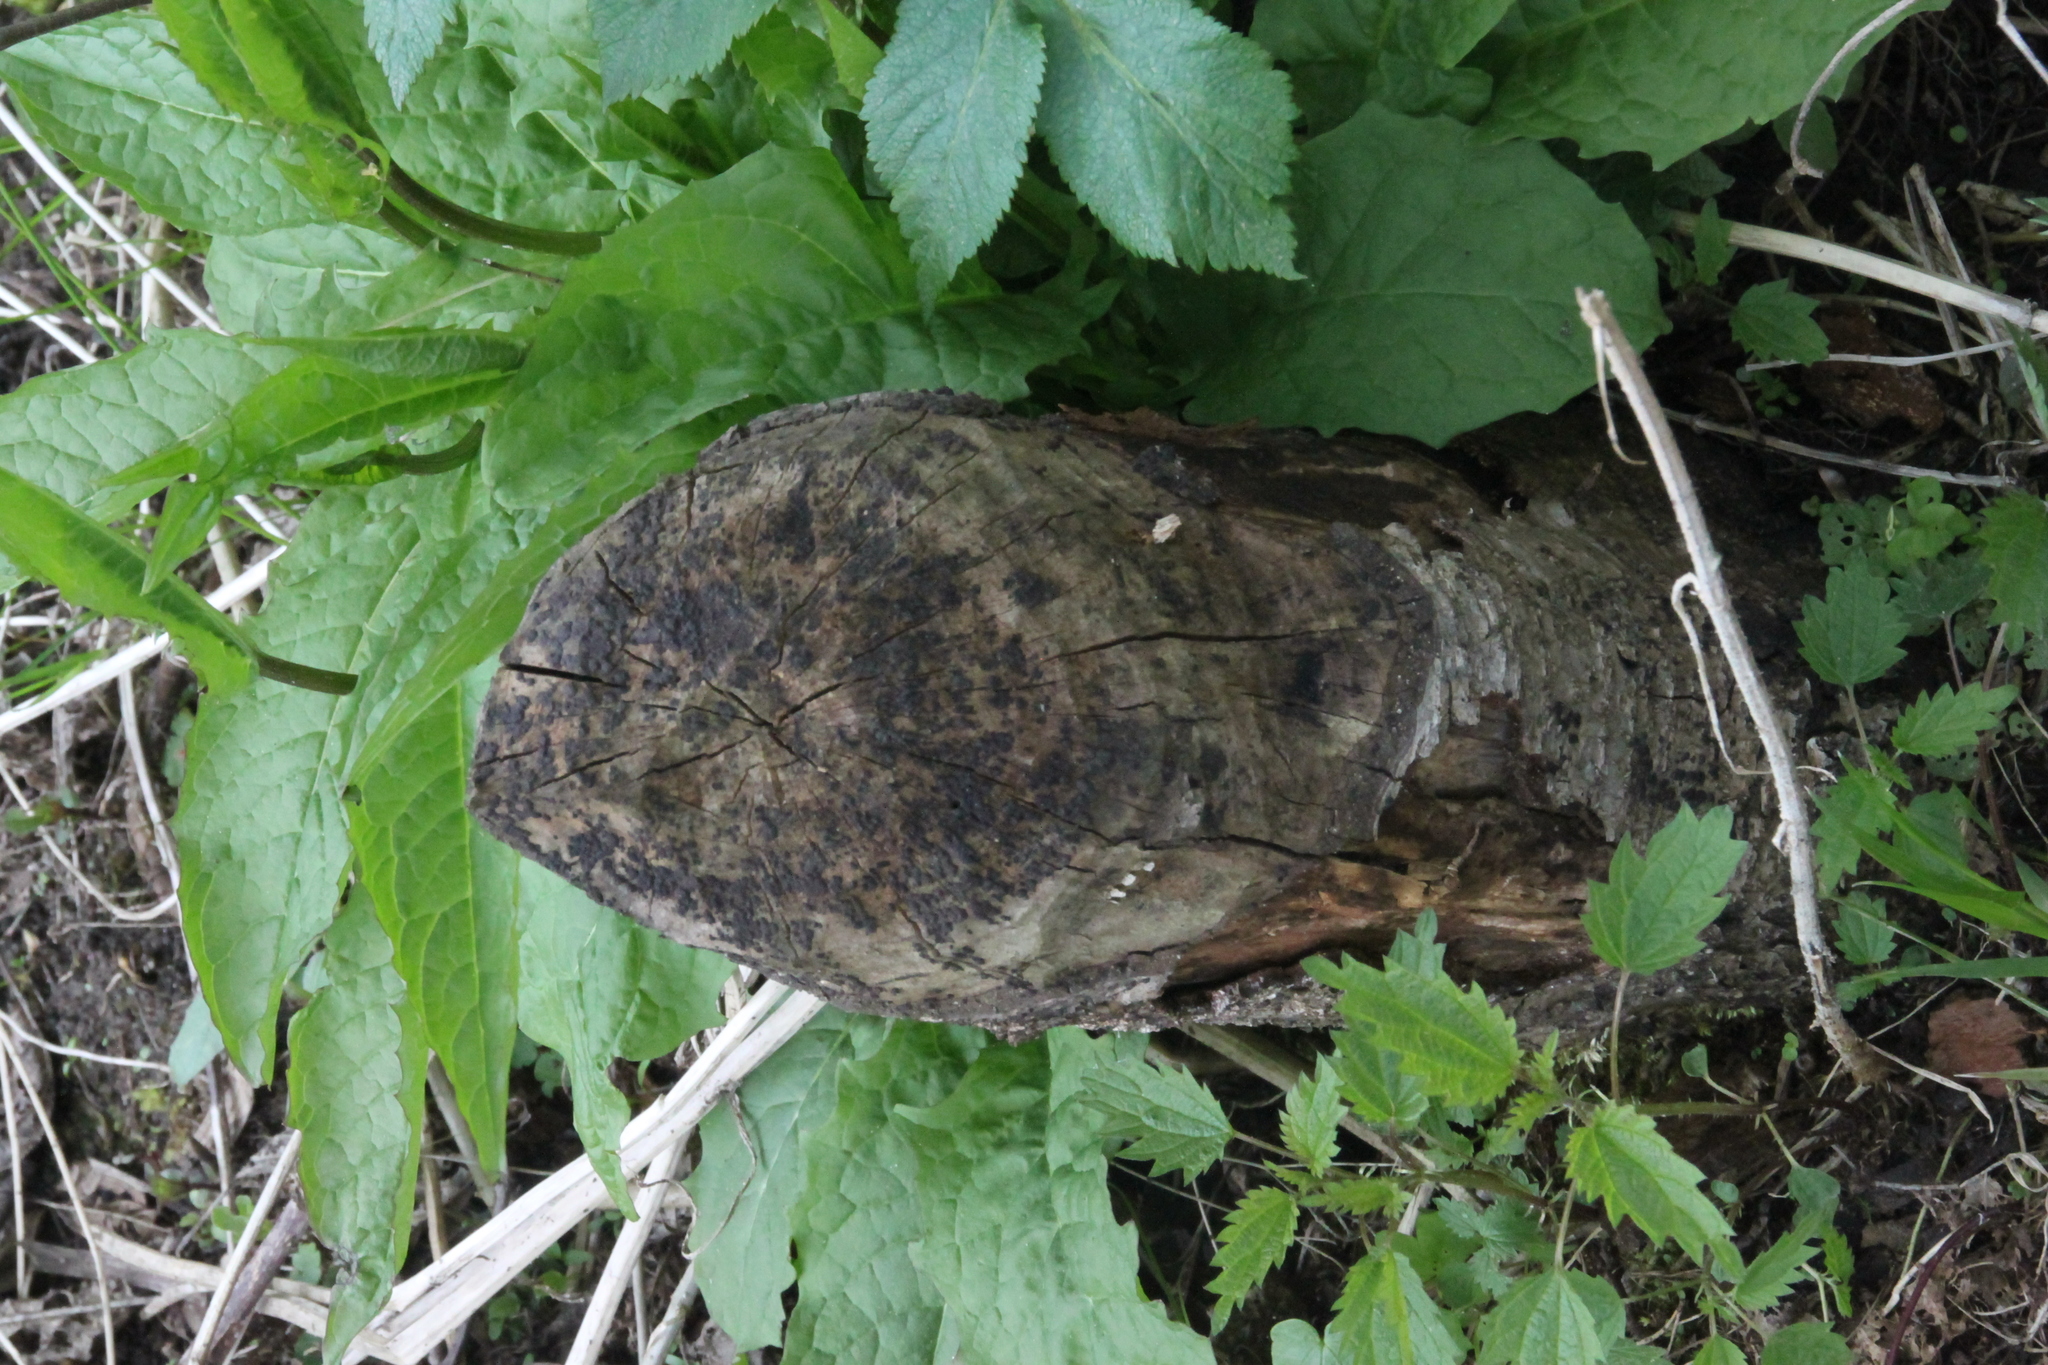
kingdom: Animalia
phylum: Chordata
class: Mammalia
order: Rodentia
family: Castoridae
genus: Castor
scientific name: Castor fiber
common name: Eurasian beaver
